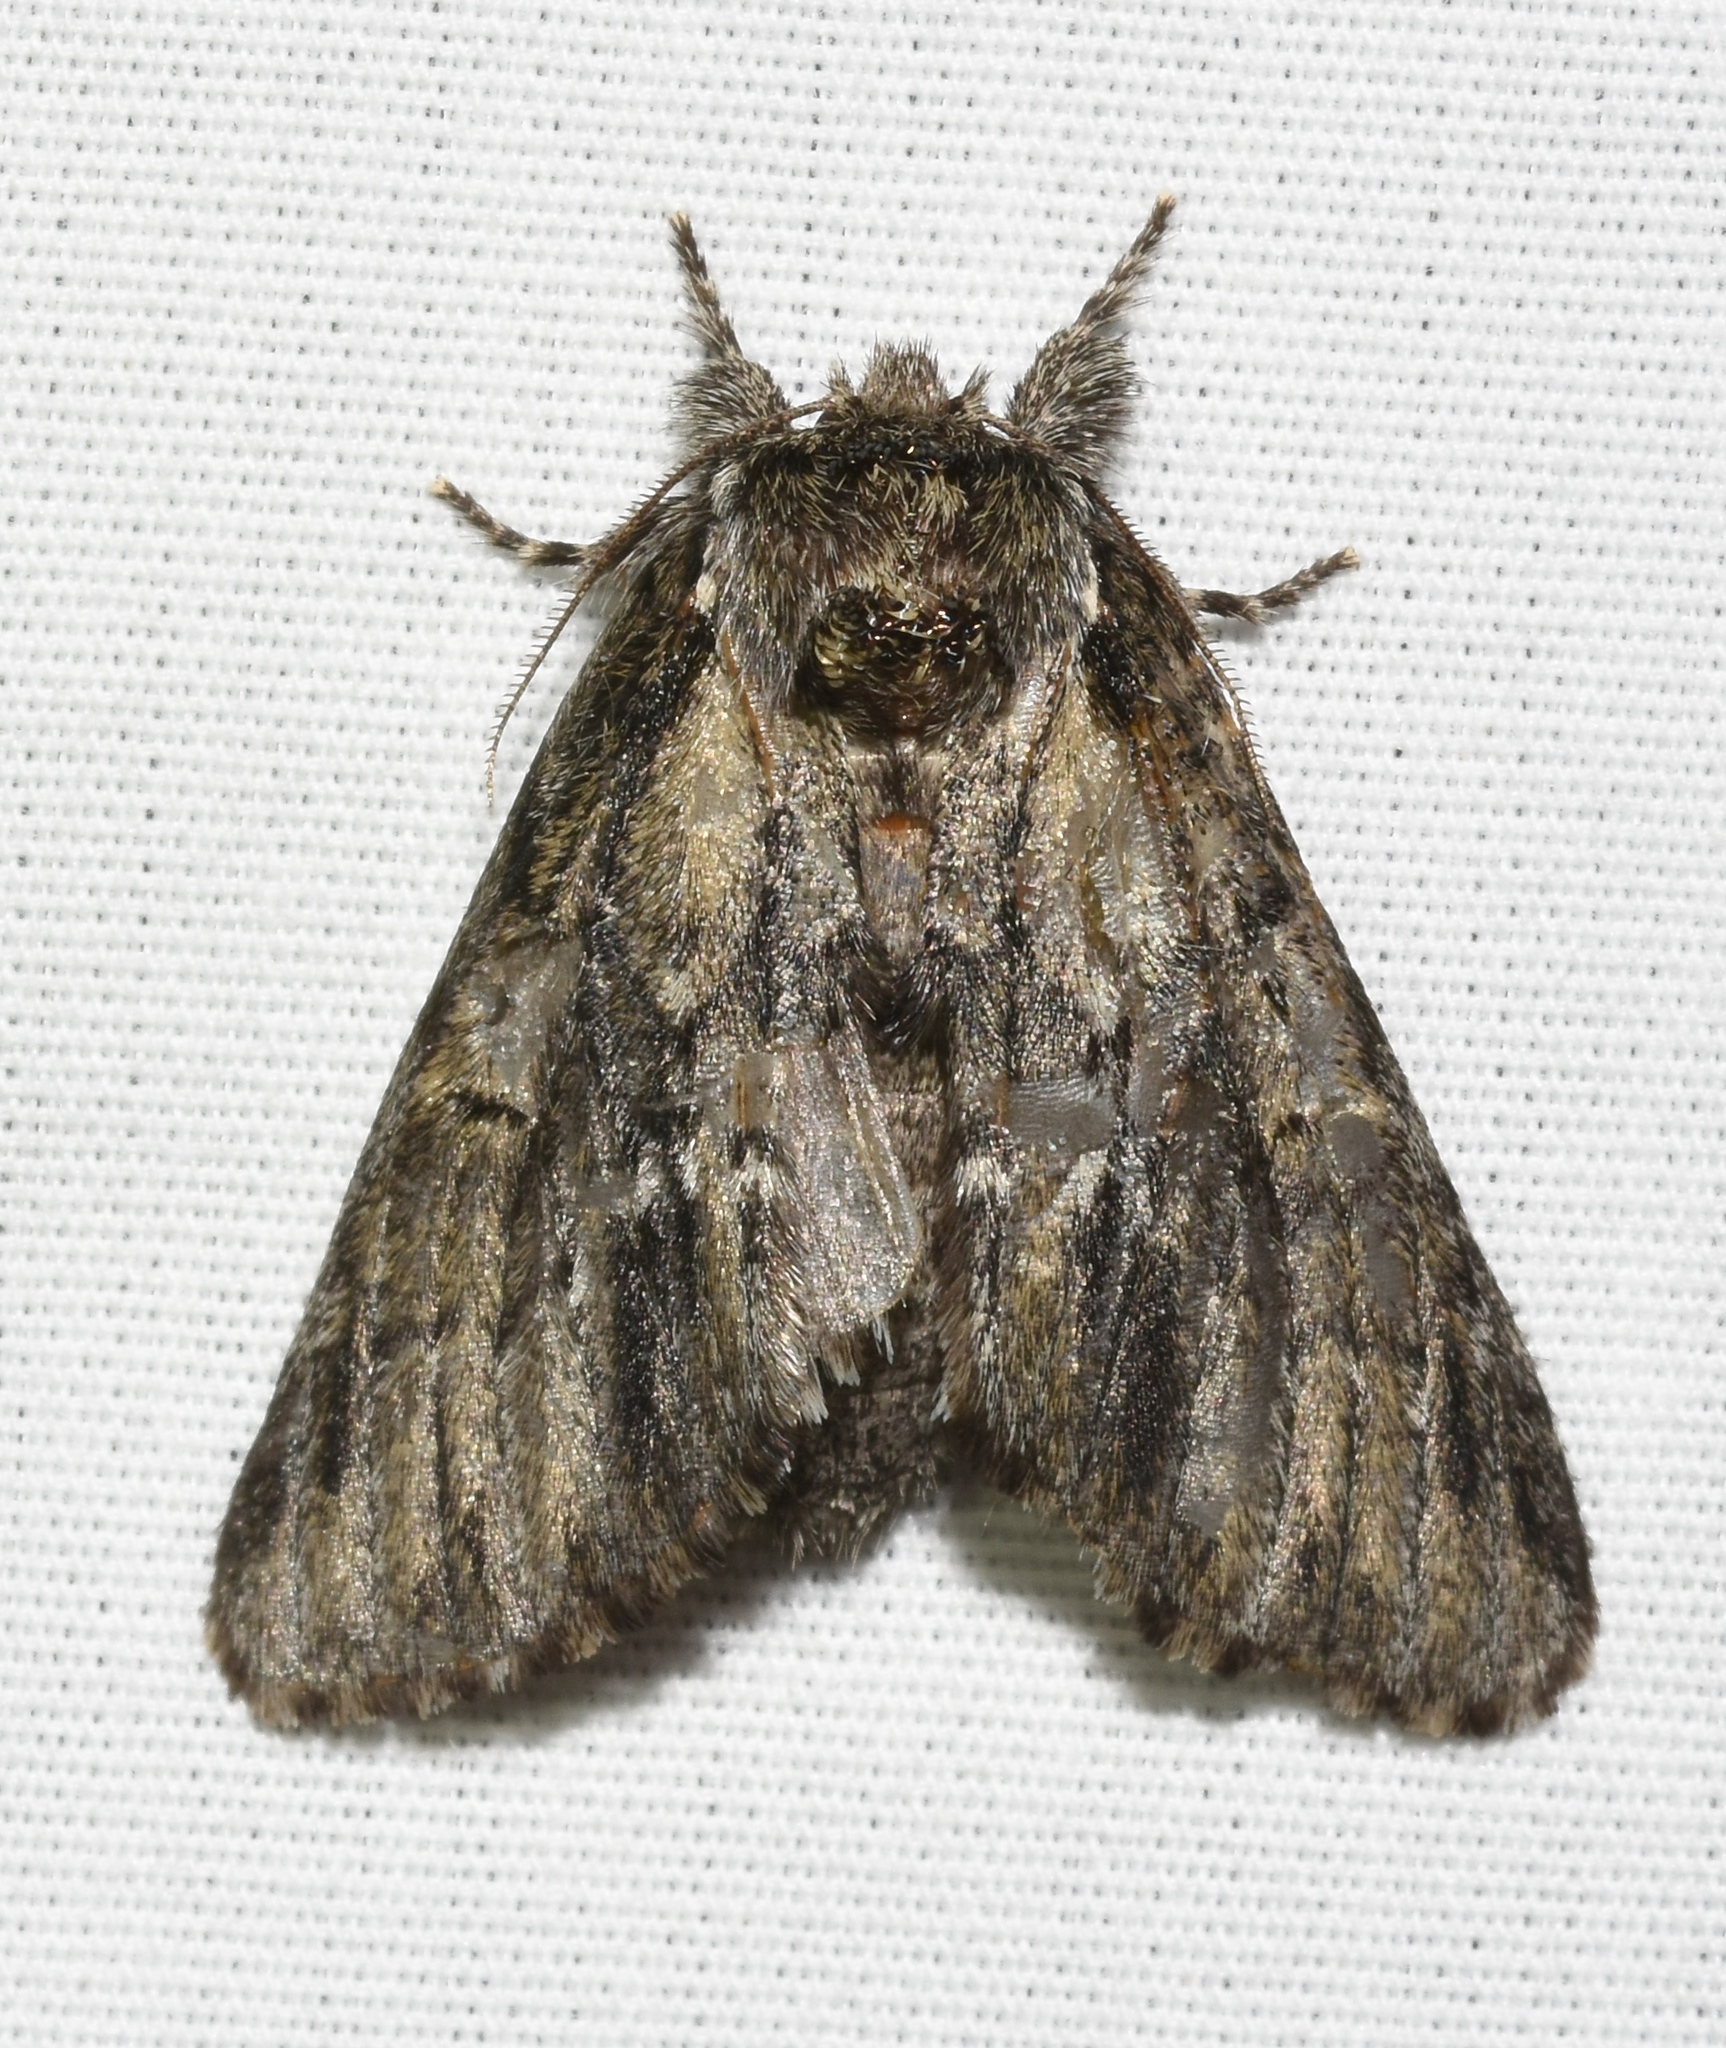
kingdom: Animalia
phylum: Arthropoda
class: Insecta
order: Lepidoptera
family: Notodontidae
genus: Paraeschra
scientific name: Paraeschra georgica
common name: Georgian prominent
